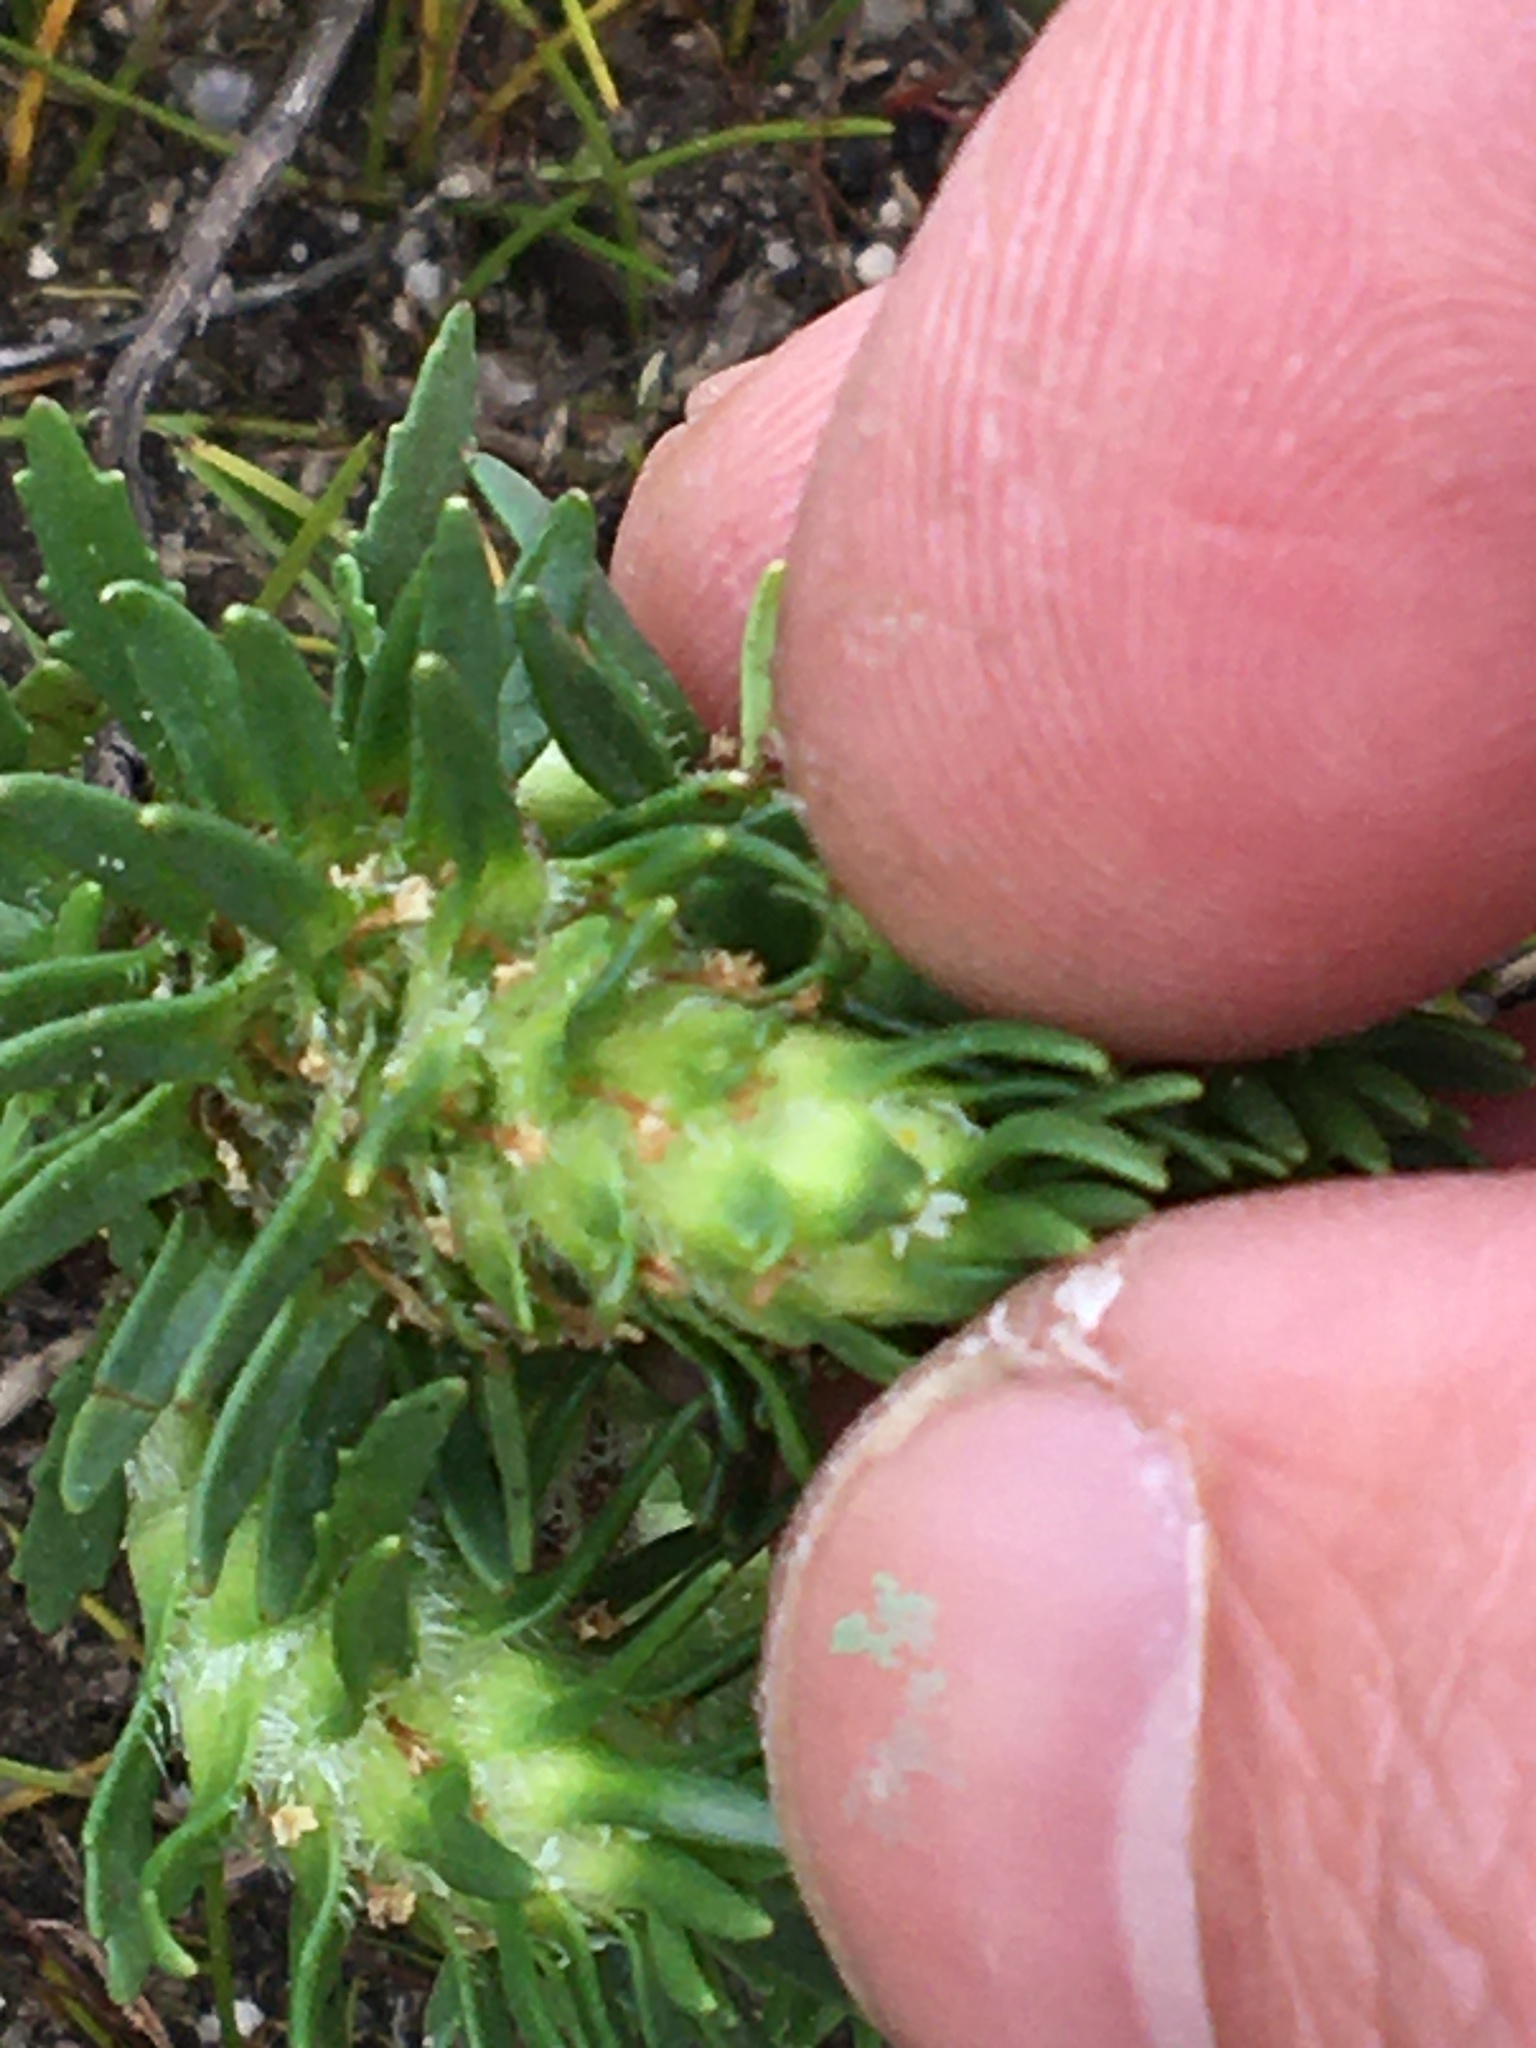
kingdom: Plantae
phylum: Tracheophyta
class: Magnoliopsida
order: Lamiales
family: Scrophulariaceae
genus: Dischisma
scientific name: Dischisma capitatum
